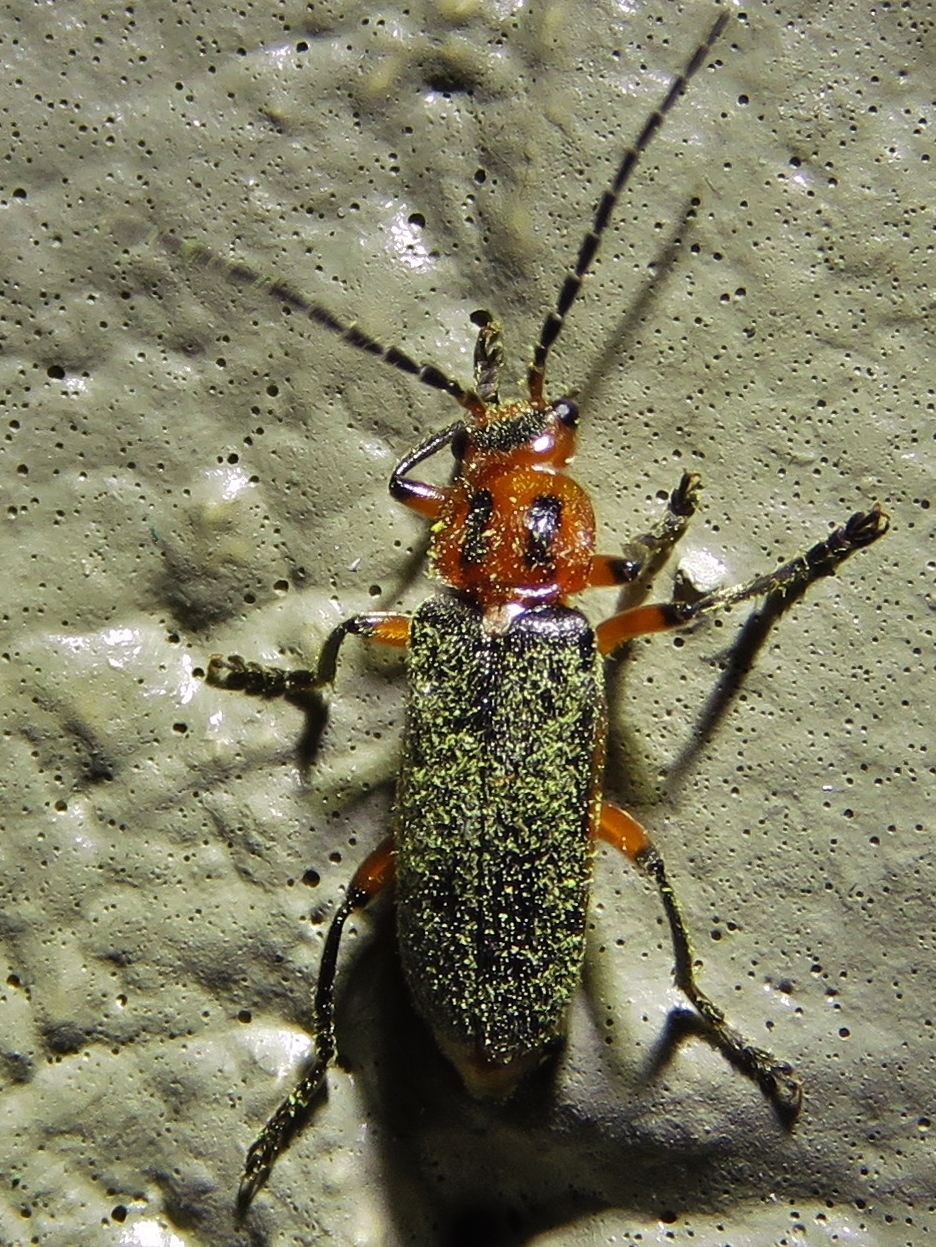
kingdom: Animalia
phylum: Arthropoda
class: Insecta
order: Coleoptera
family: Cantharidae
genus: Atalantycha
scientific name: Atalantycha bilineata
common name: Two-lined leatherwing
